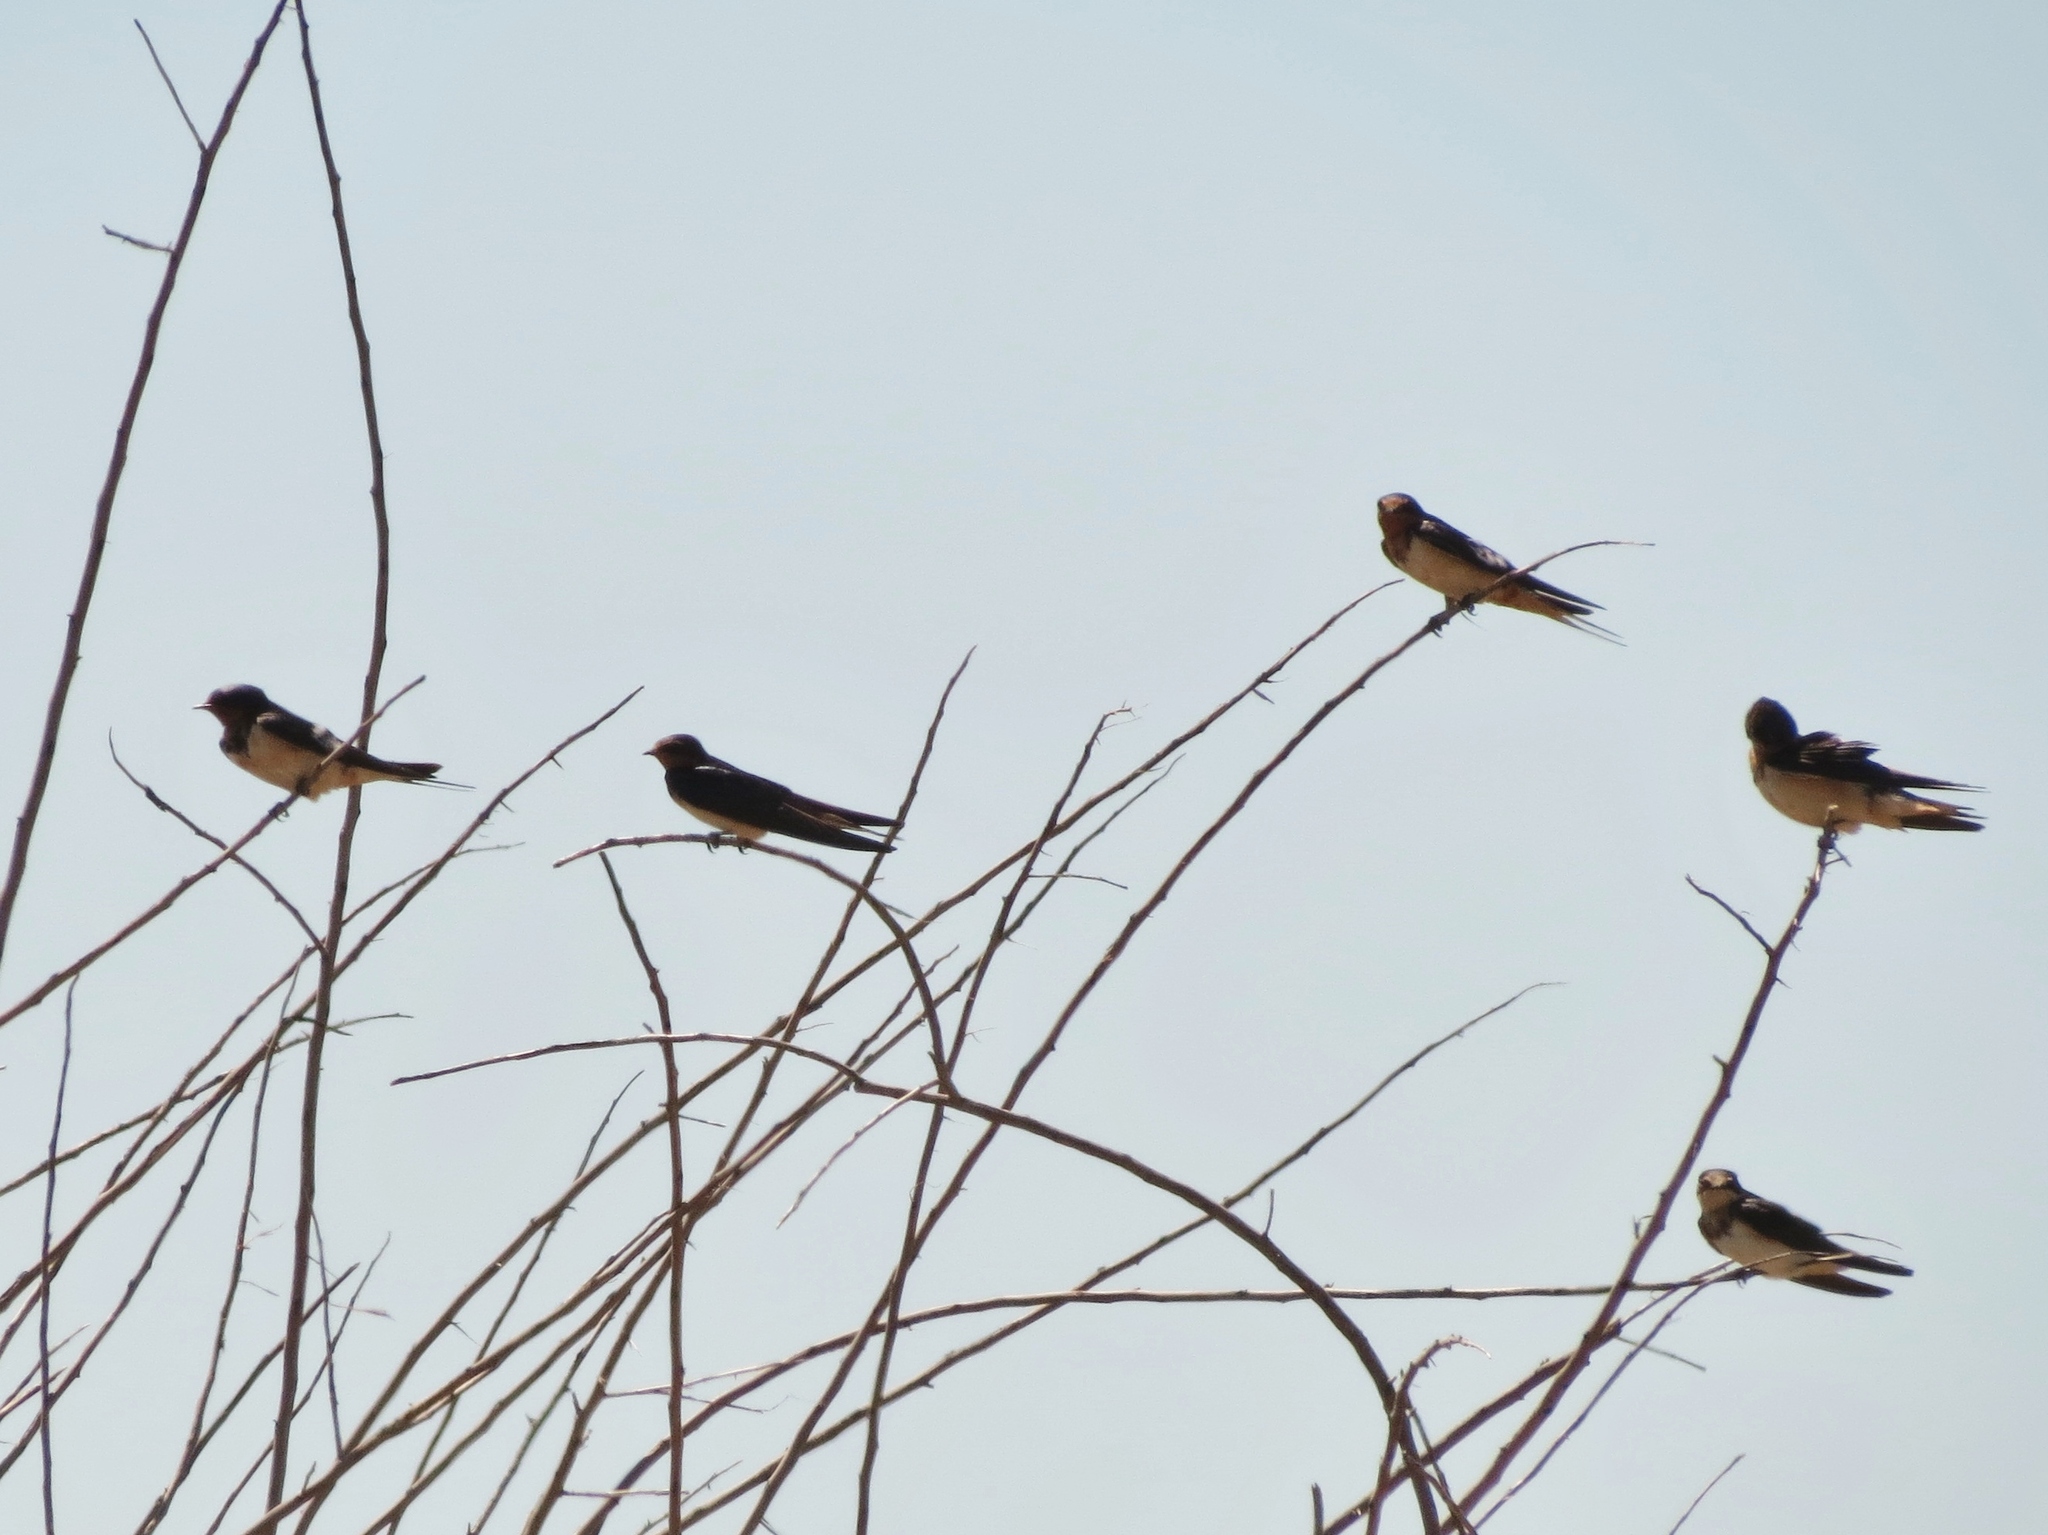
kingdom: Animalia
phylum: Chordata
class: Aves
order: Passeriformes
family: Hirundinidae
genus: Hirundo
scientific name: Hirundo rustica
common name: Barn swallow
